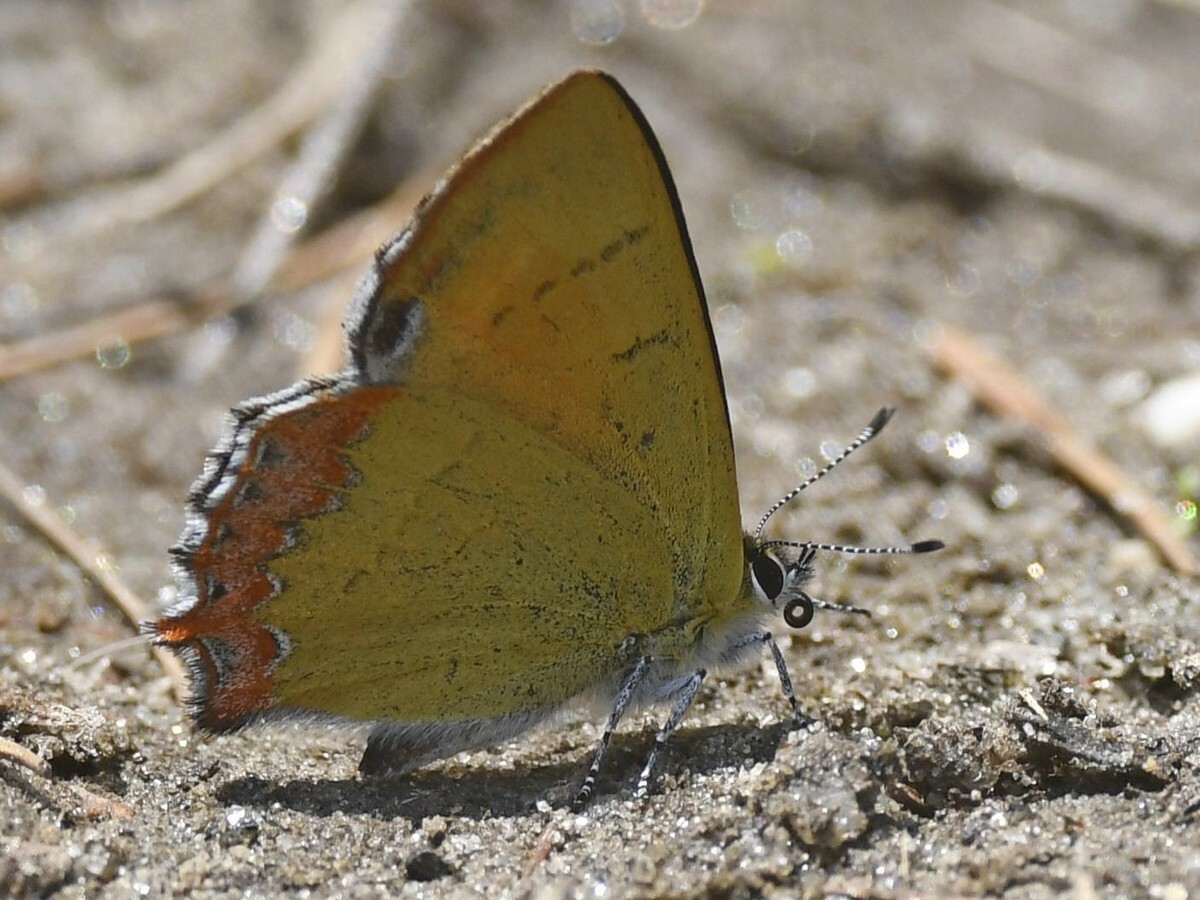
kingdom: Animalia
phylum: Arthropoda
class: Insecta
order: Lepidoptera
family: Lycaenidae
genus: Heliophorus
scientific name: Heliophorus oda
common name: Eastern blue sapphire
